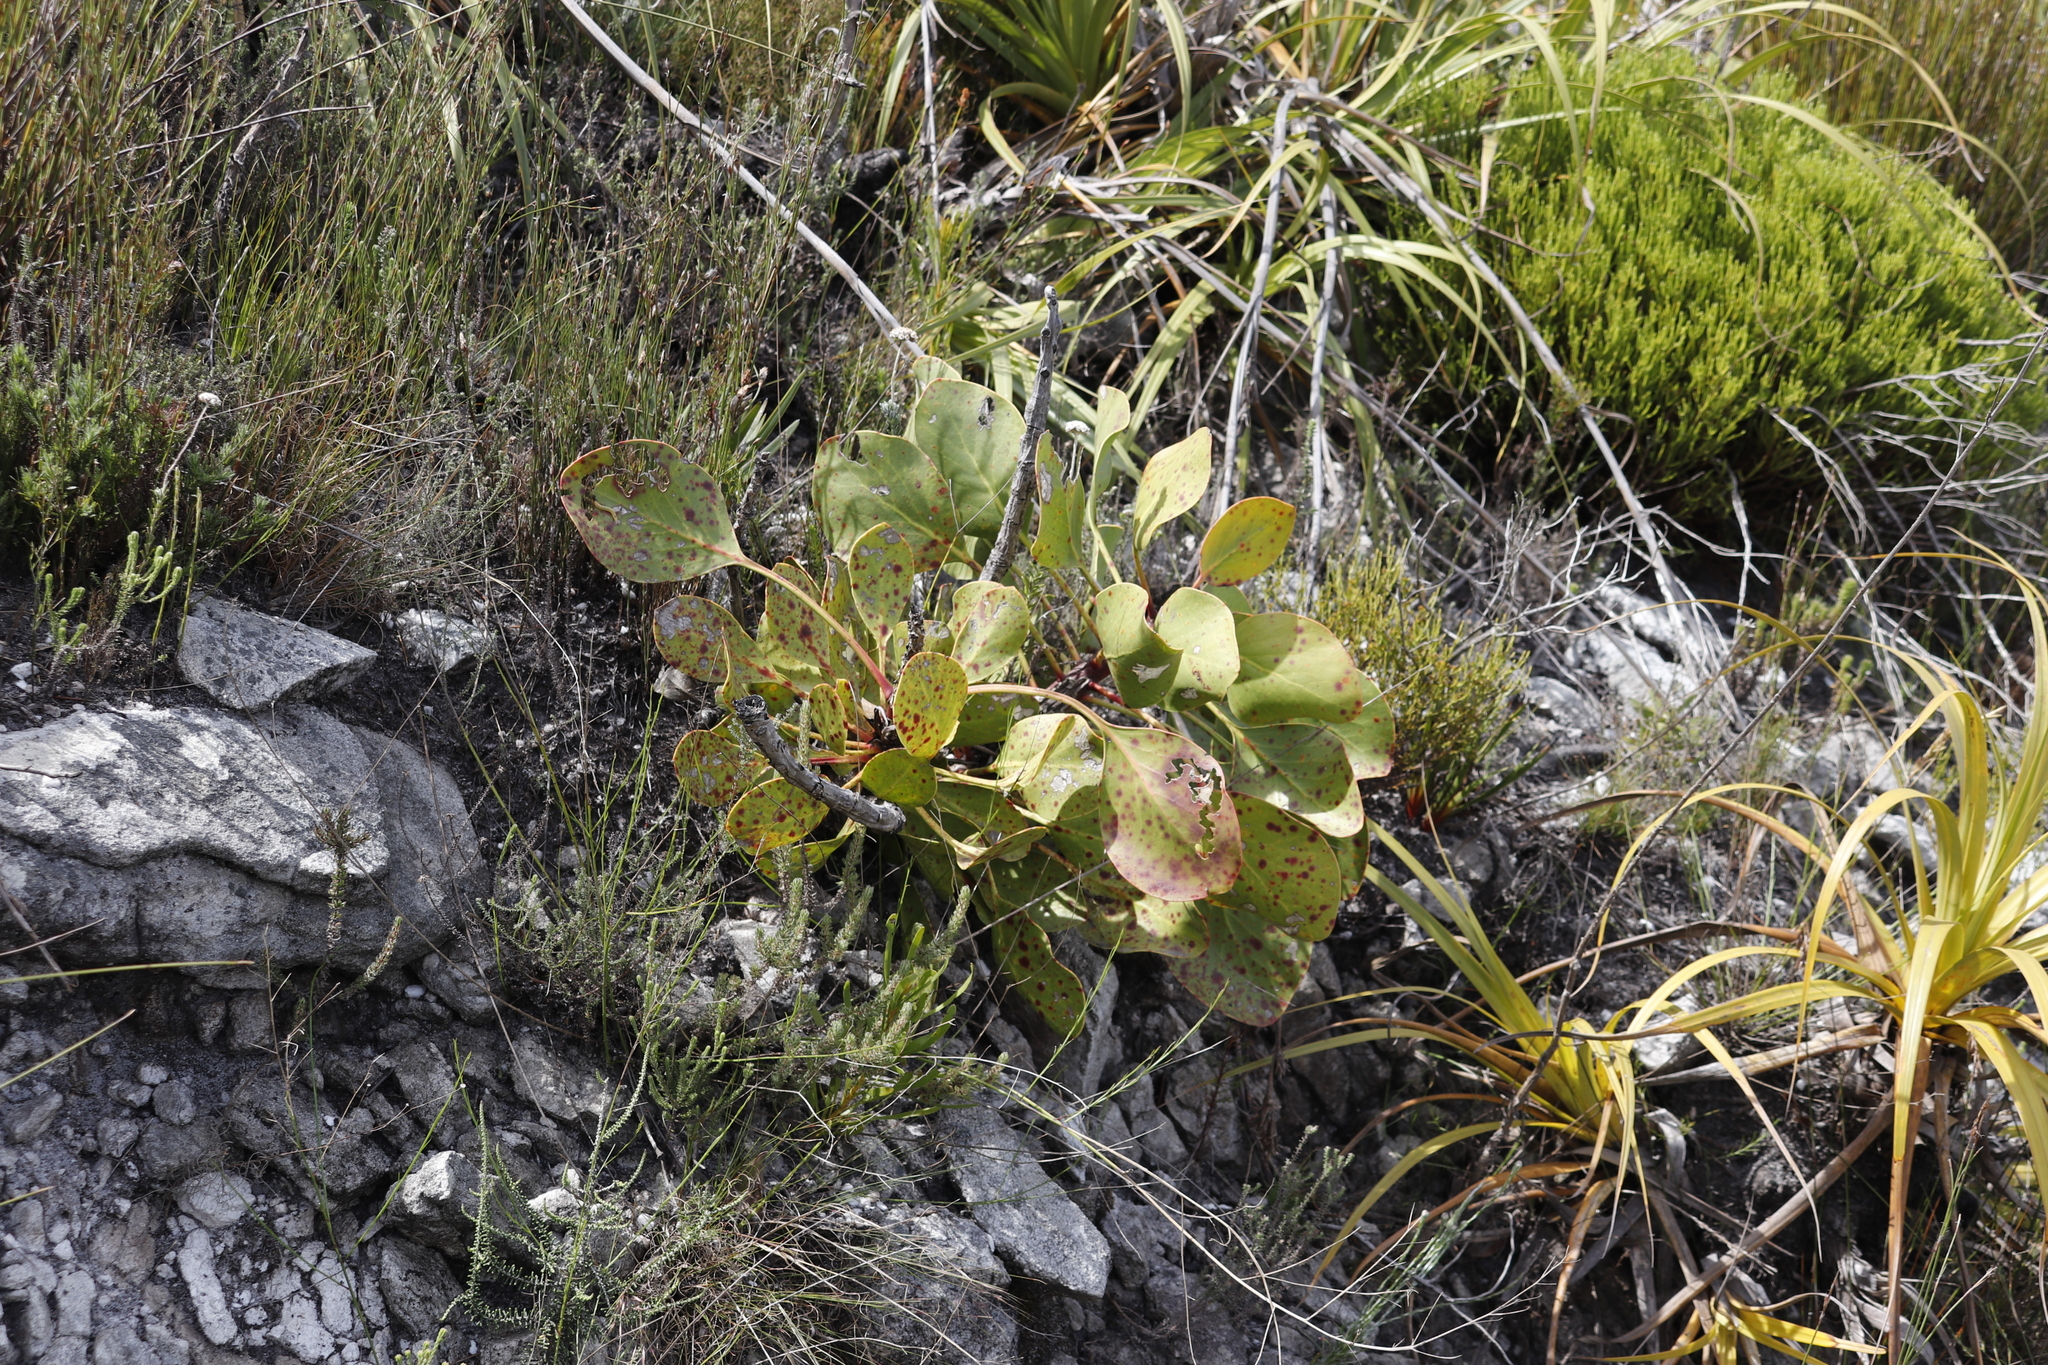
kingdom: Plantae
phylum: Tracheophyta
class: Magnoliopsida
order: Proteales
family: Proteaceae
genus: Protea
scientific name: Protea cynaroides
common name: King protea
